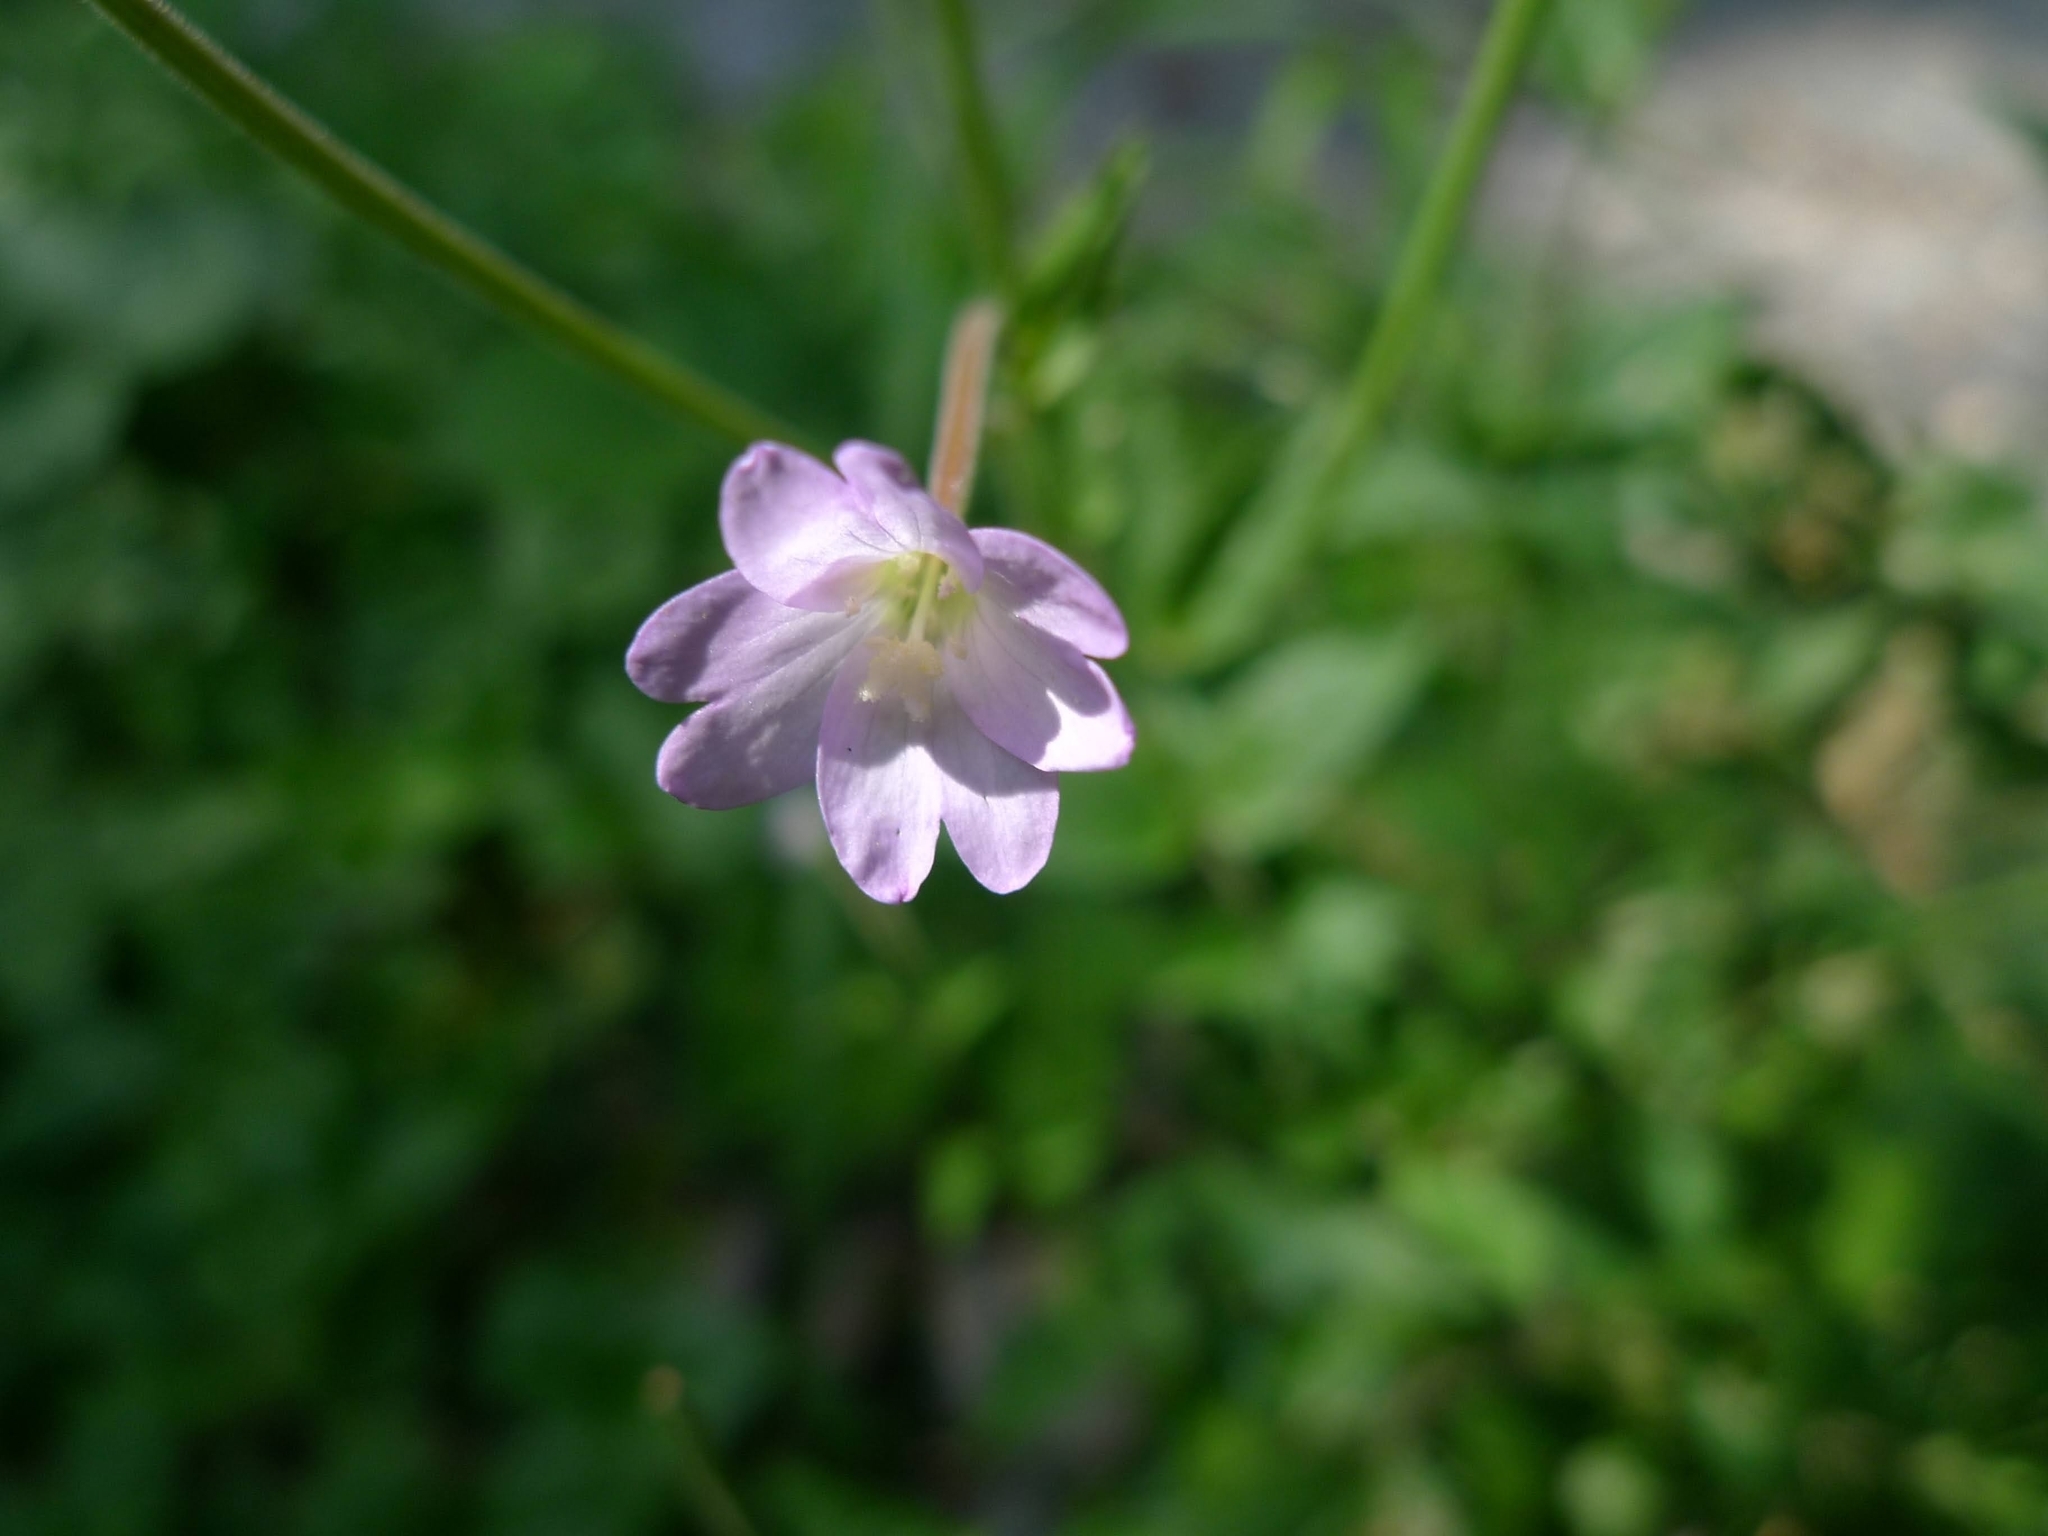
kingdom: Plantae
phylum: Tracheophyta
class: Magnoliopsida
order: Myrtales
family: Onagraceae
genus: Epilobium
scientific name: Epilobium montanum
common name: Broad-leaved willowherb
